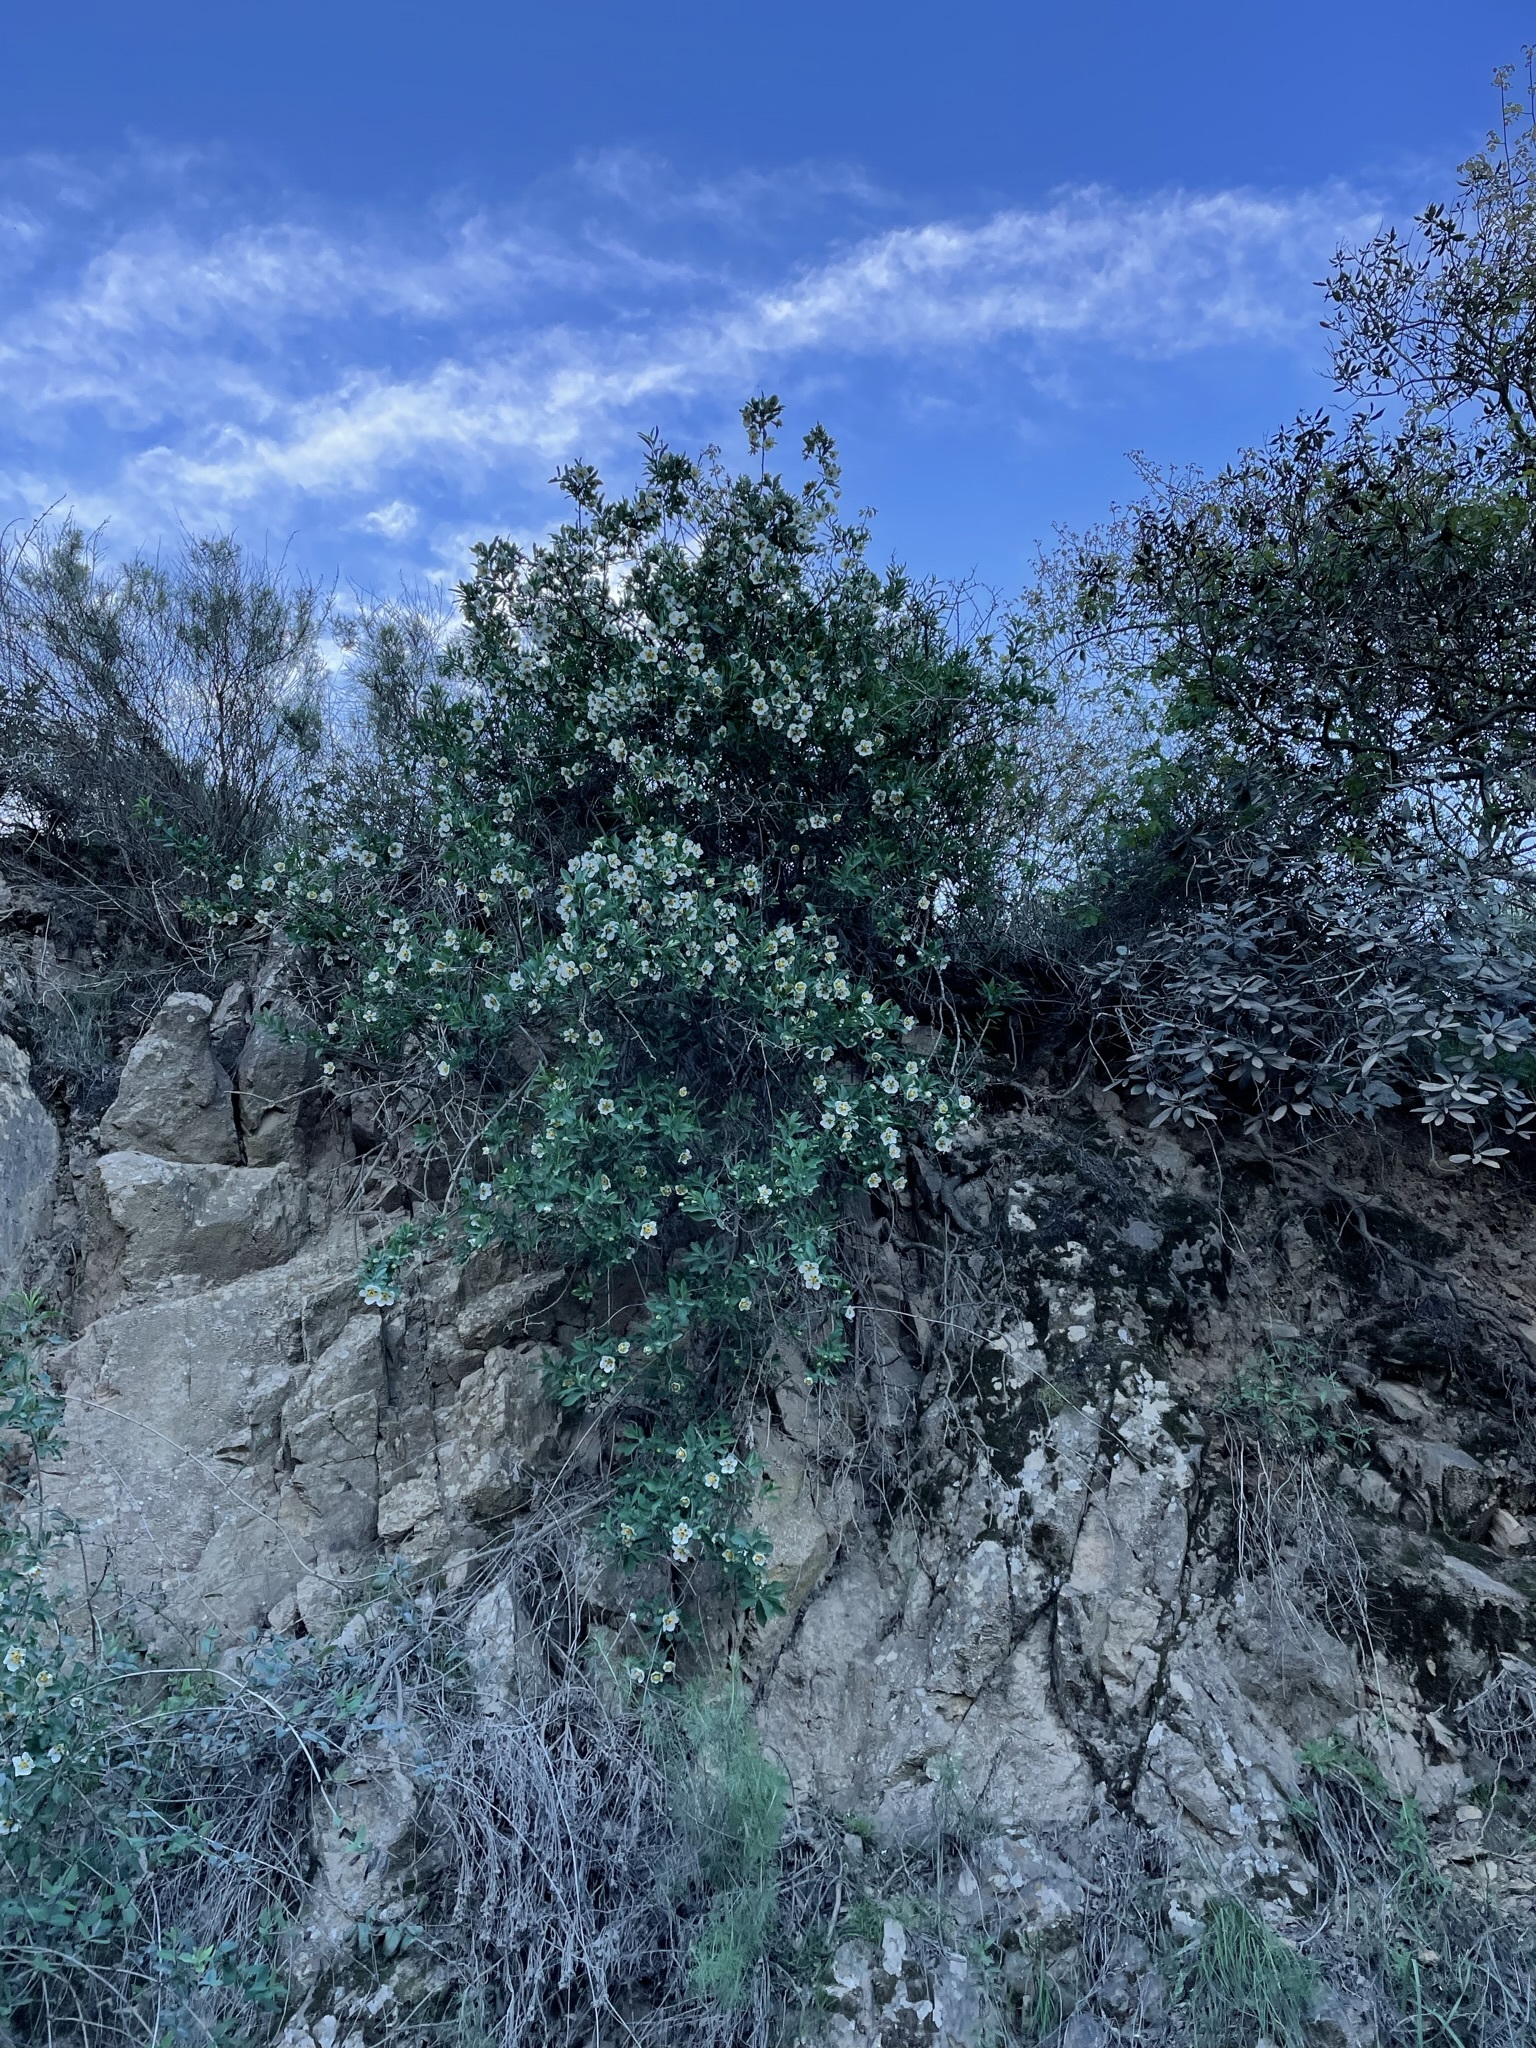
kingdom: Plantae
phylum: Tracheophyta
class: Magnoliopsida
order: Crossosomatales
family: Crossosomataceae
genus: Crossosoma
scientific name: Crossosoma californicum
